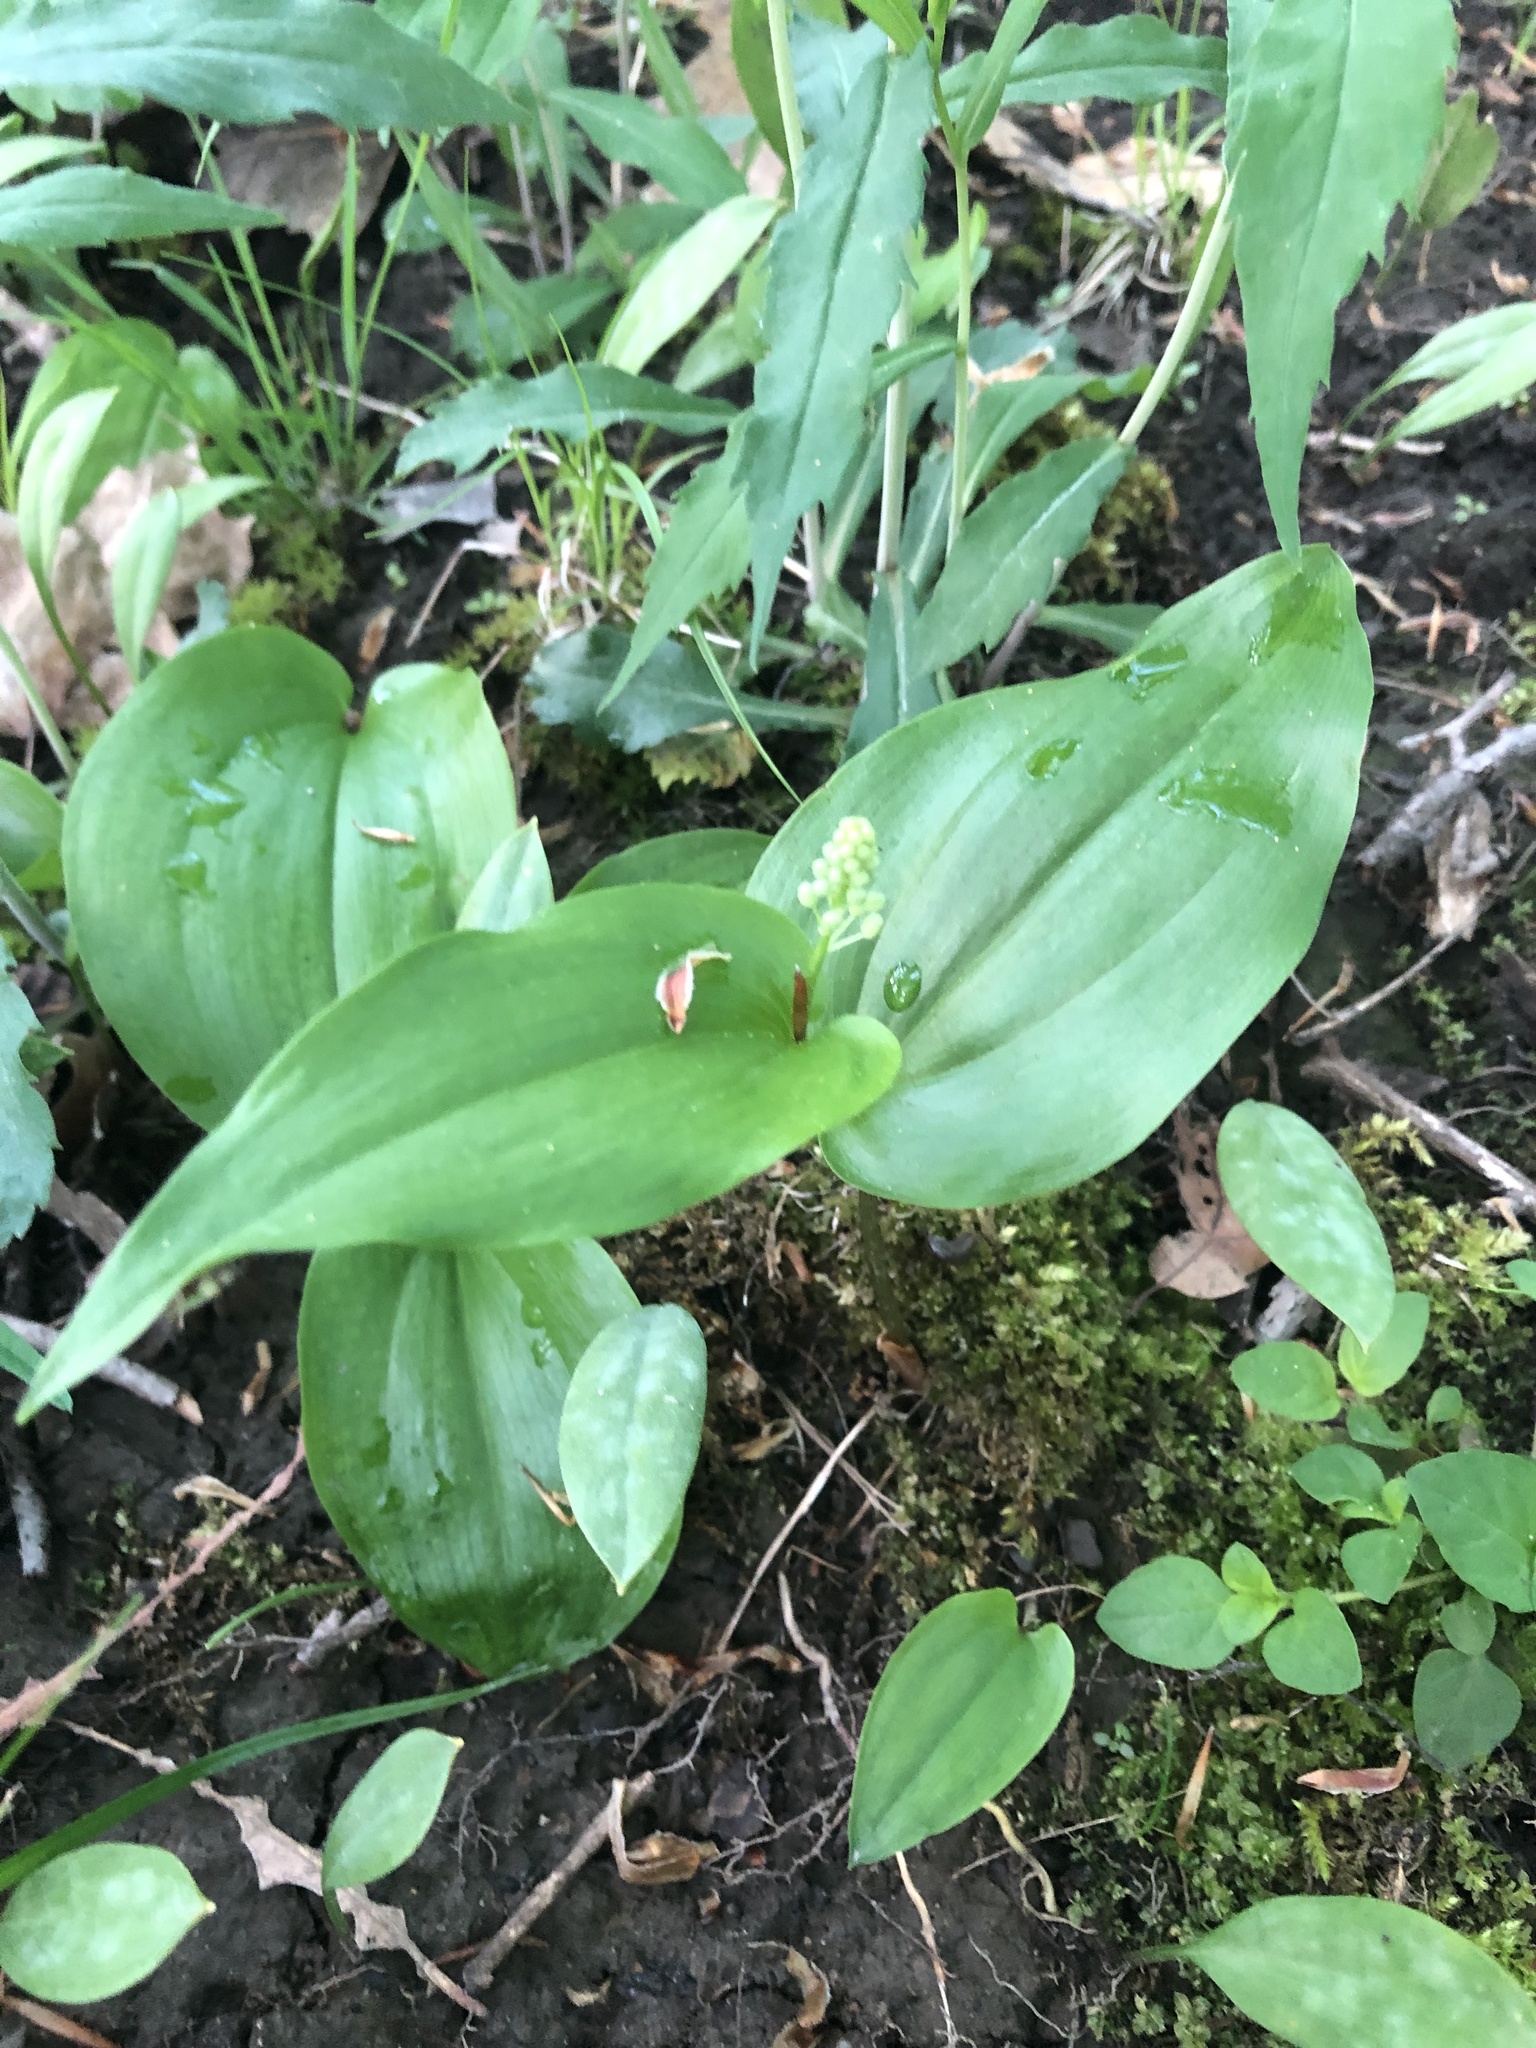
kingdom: Plantae
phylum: Tracheophyta
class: Liliopsida
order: Asparagales
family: Asparagaceae
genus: Maianthemum
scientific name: Maianthemum canadense
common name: False lily-of-the-valley
